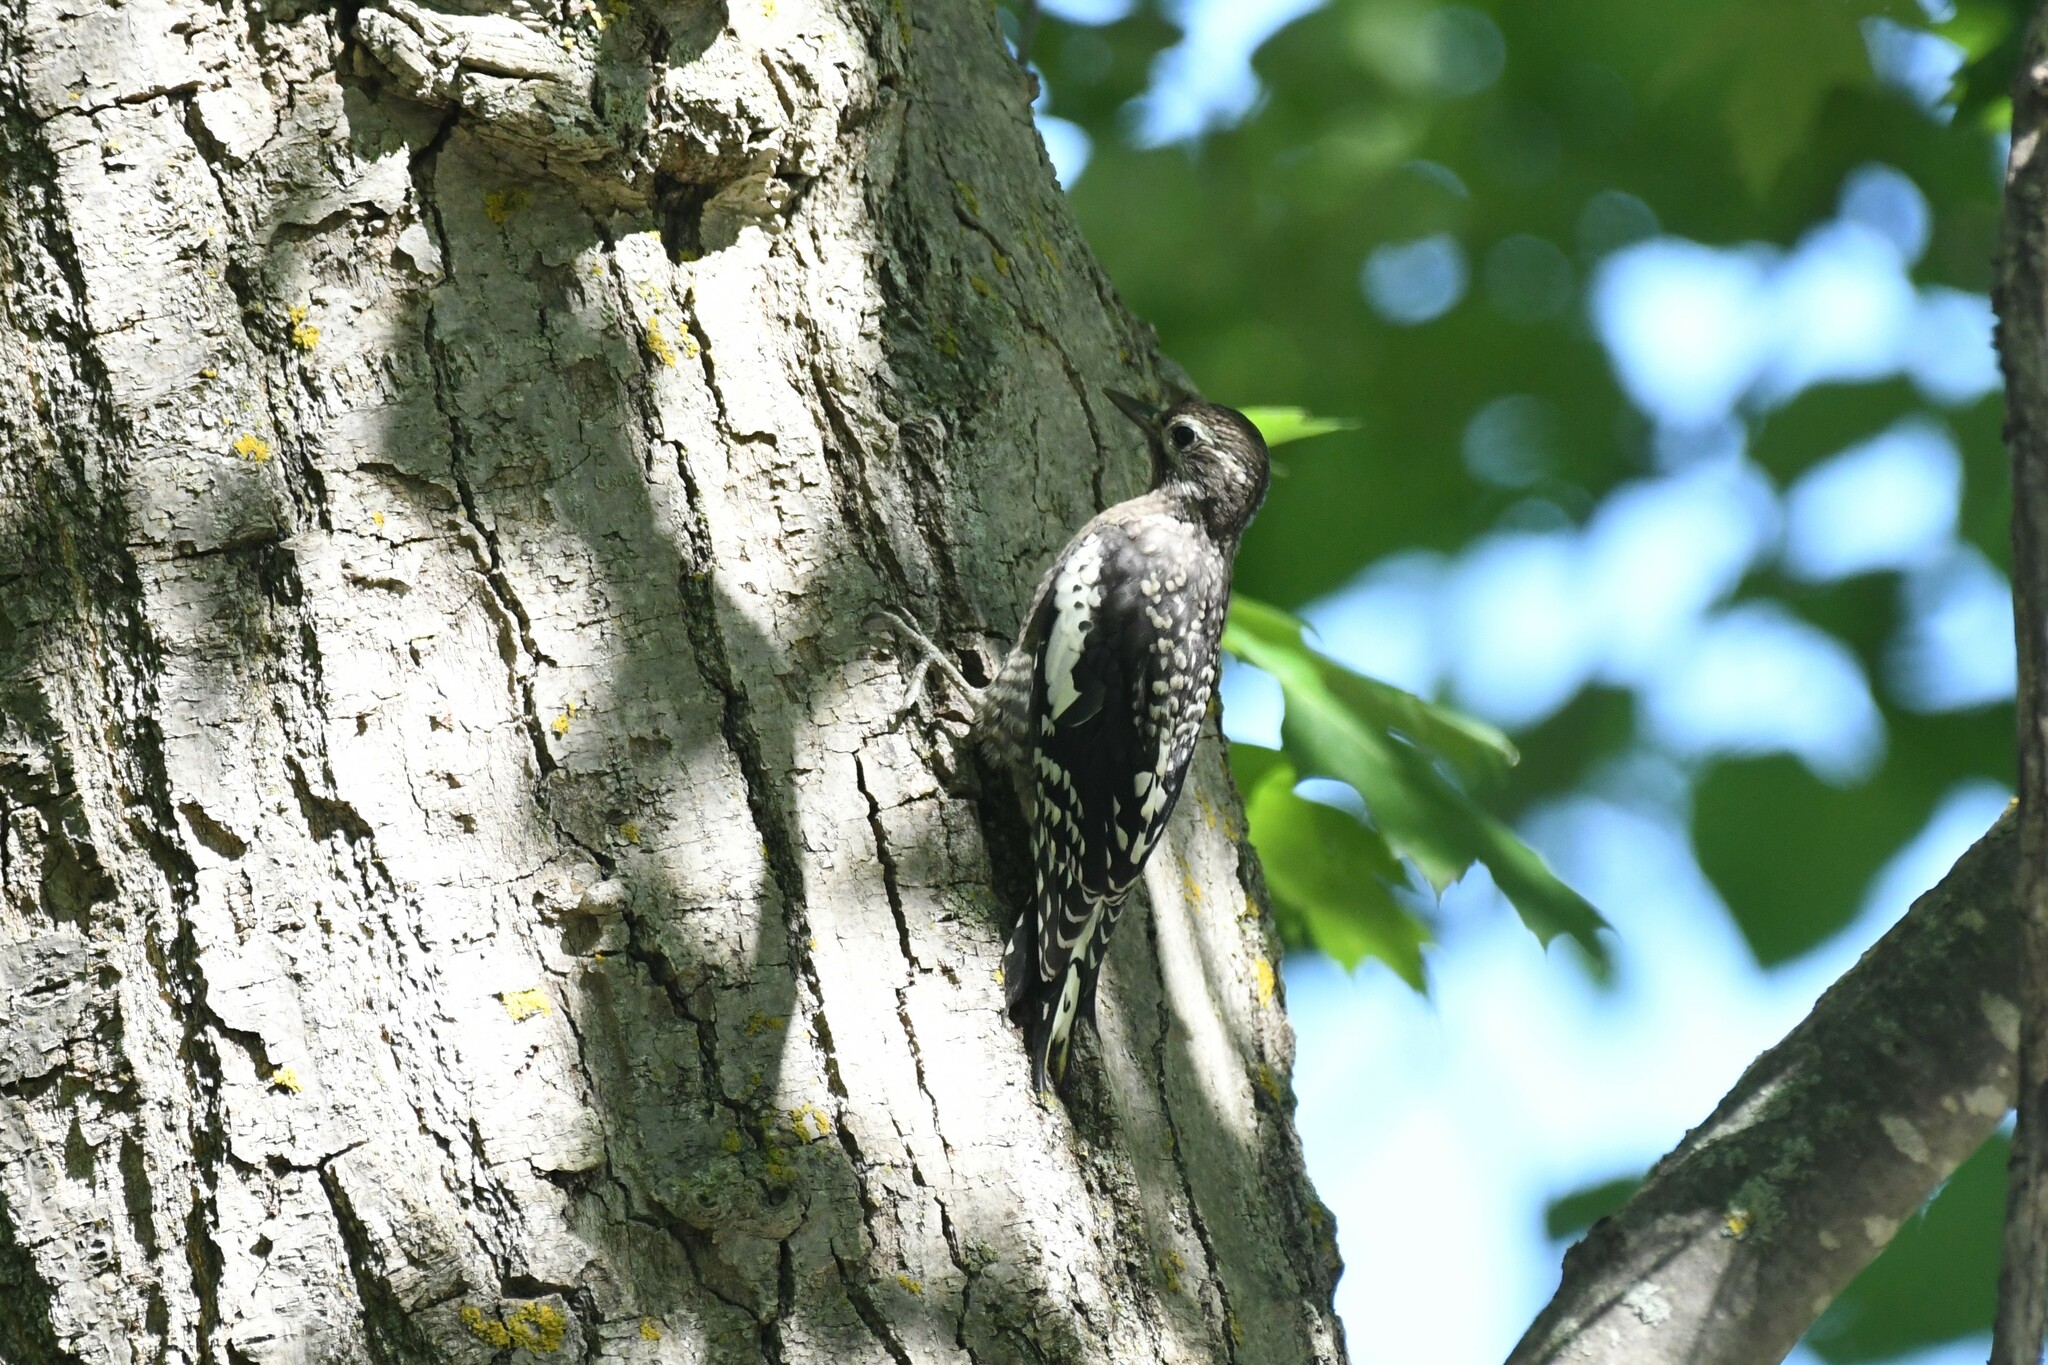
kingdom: Animalia
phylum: Chordata
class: Aves
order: Piciformes
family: Picidae
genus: Sphyrapicus
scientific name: Sphyrapicus varius
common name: Yellow-bellied sapsucker
